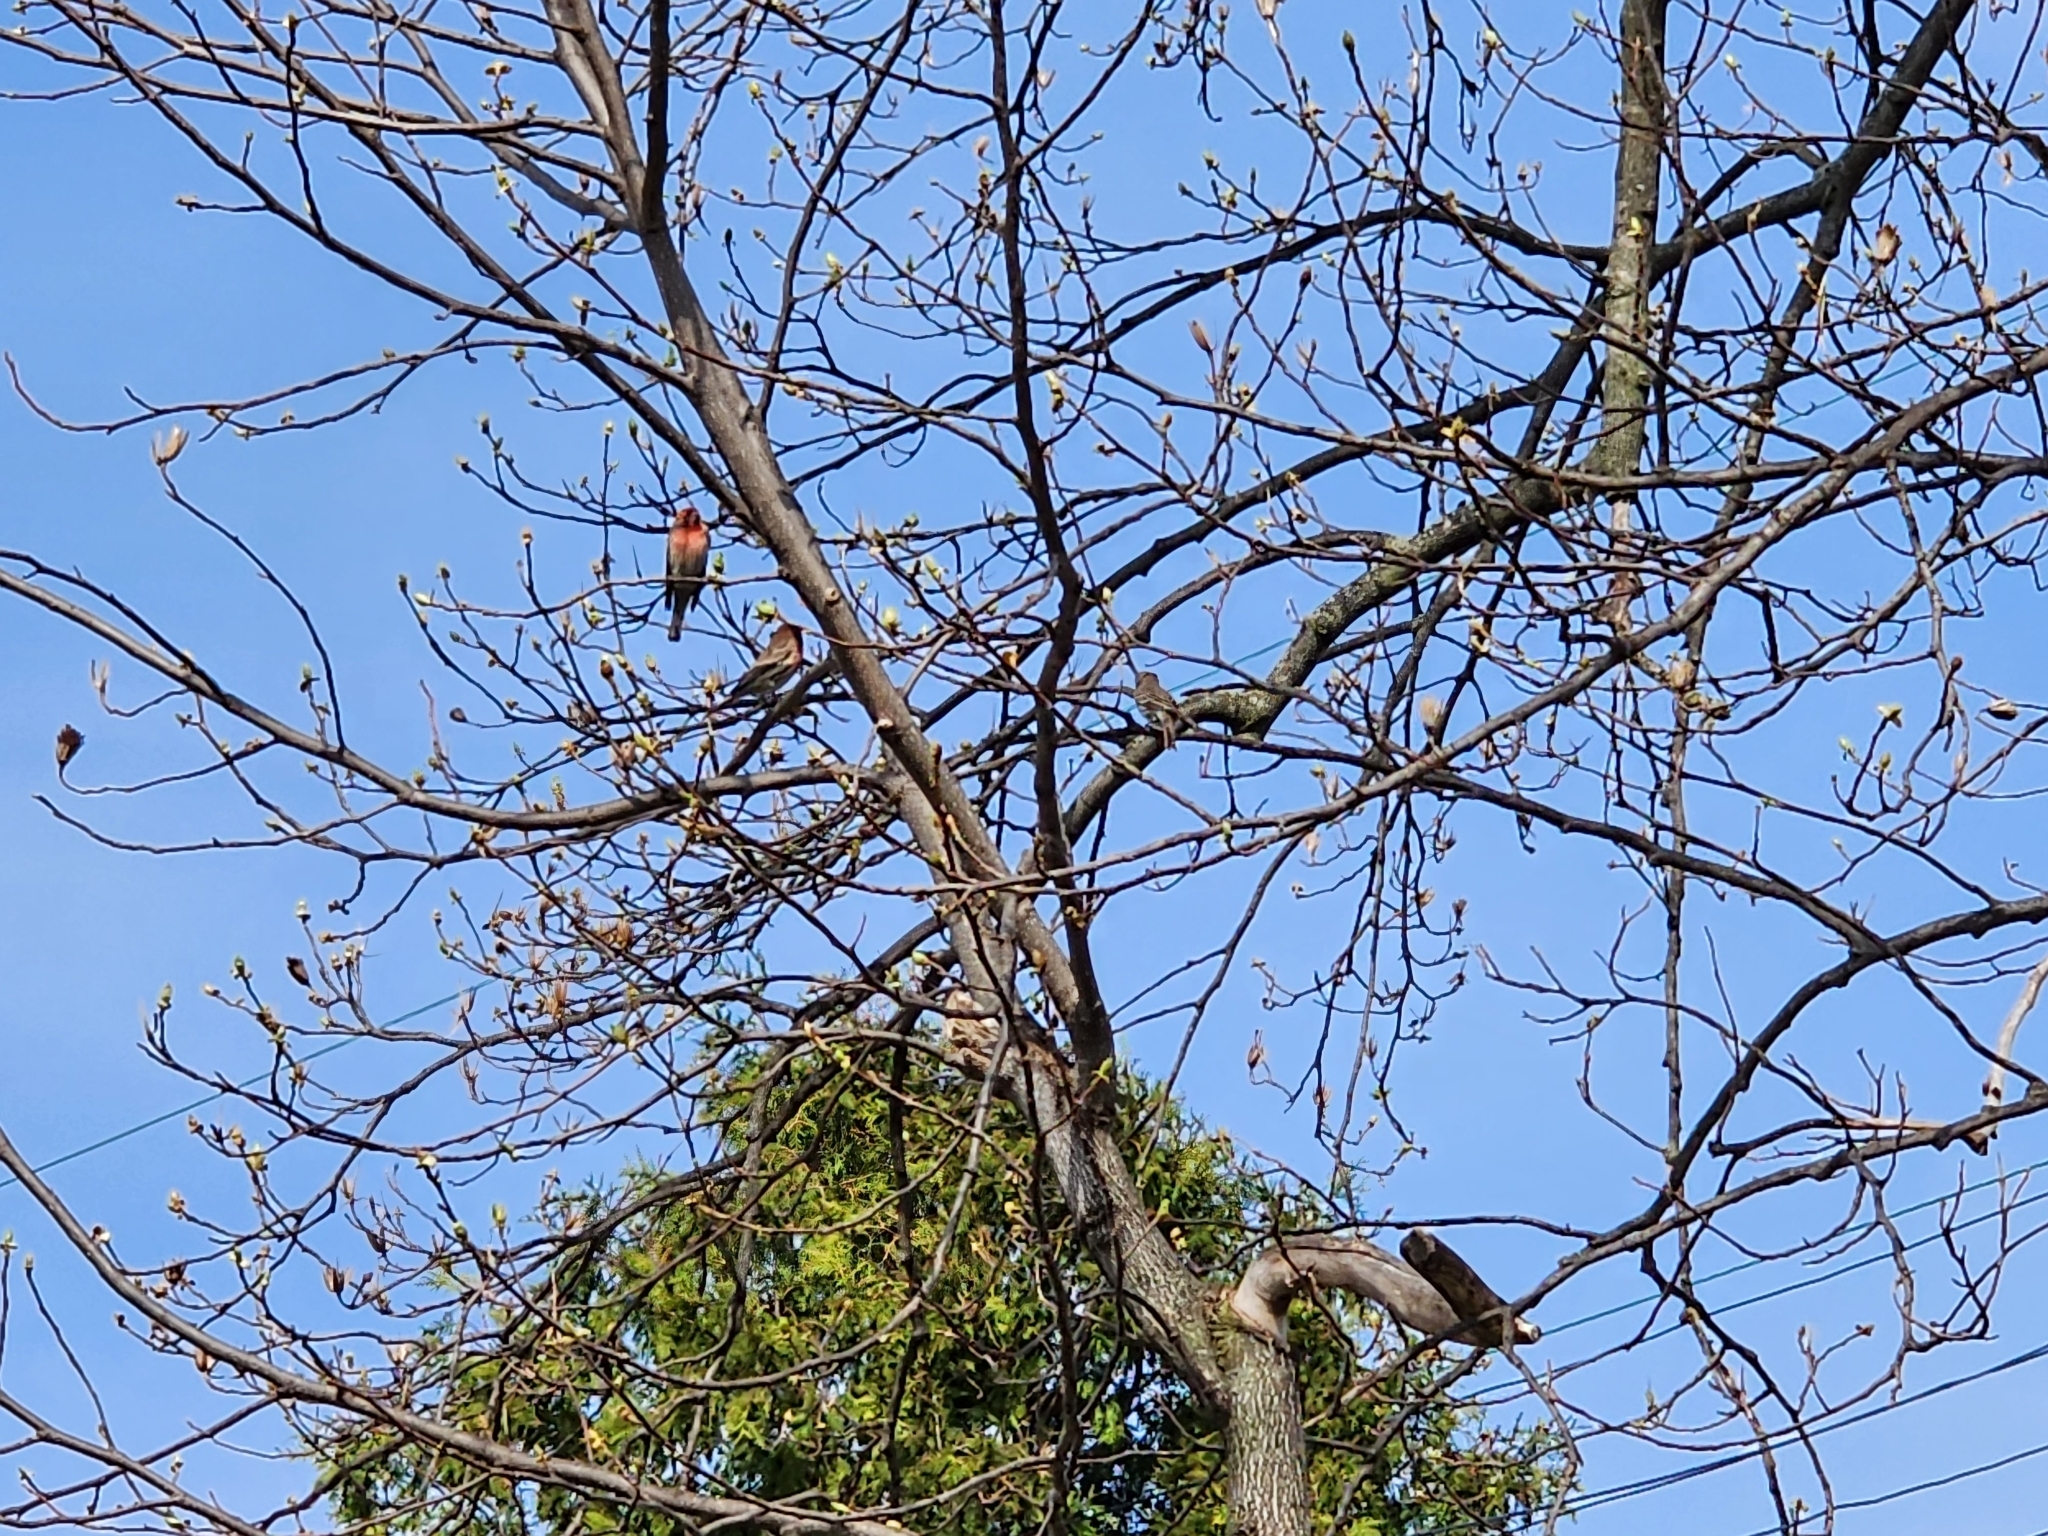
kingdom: Animalia
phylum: Chordata
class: Aves
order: Passeriformes
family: Fringillidae
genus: Haemorhous
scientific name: Haemorhous mexicanus
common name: House finch
